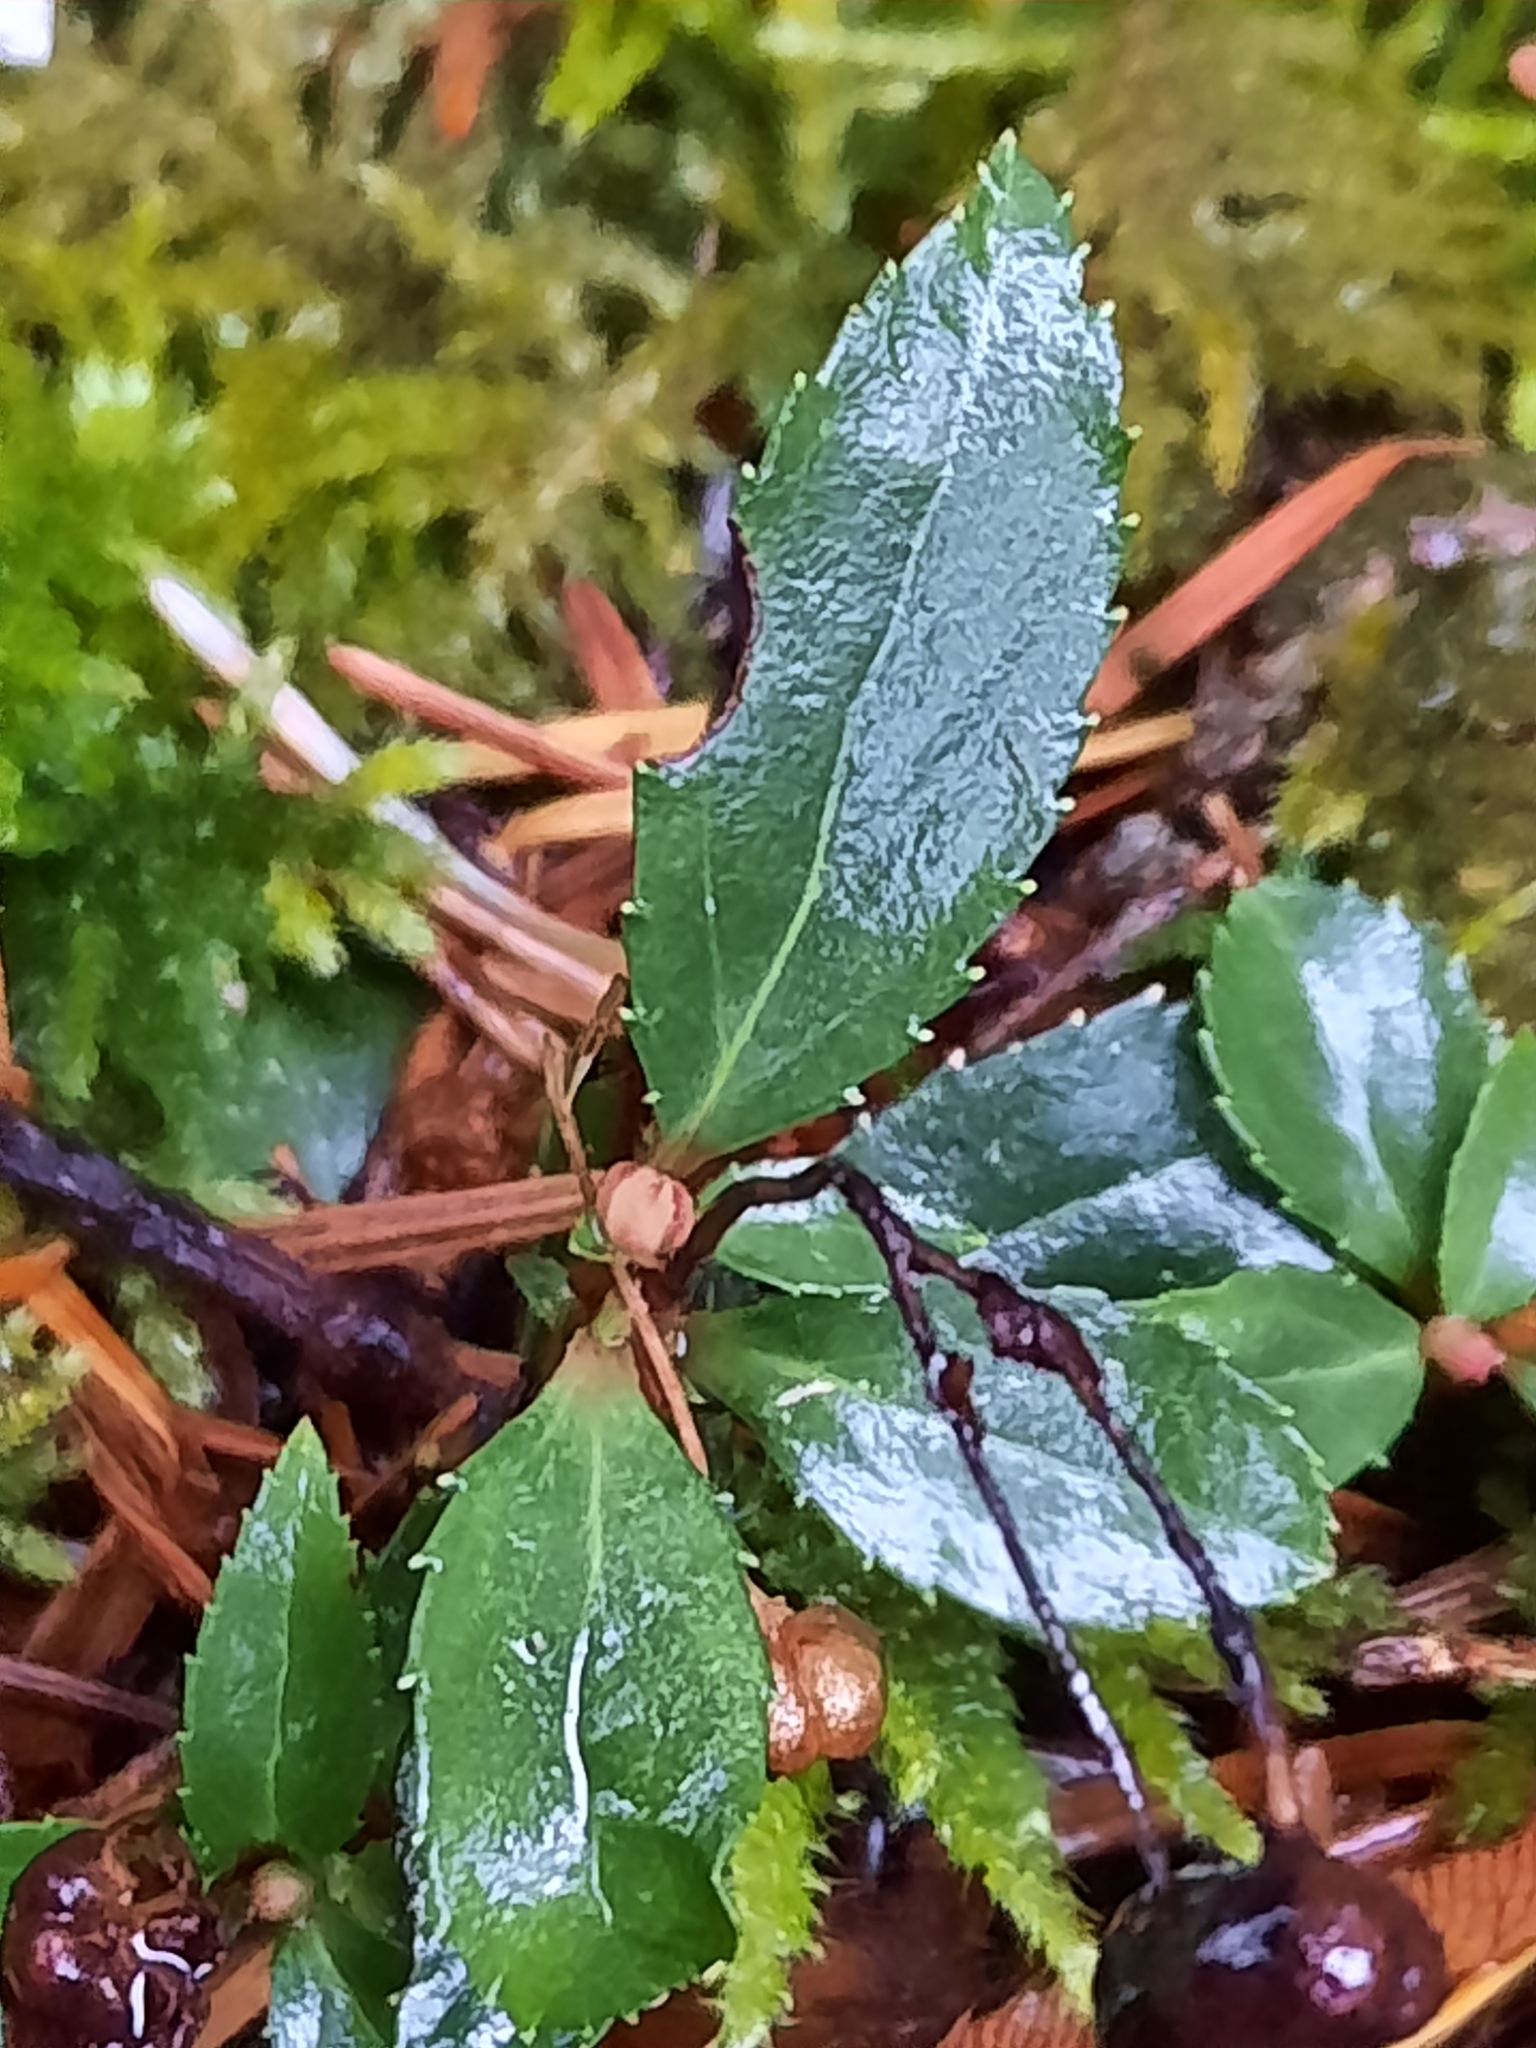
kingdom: Plantae
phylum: Tracheophyta
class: Magnoliopsida
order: Ericales
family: Ericaceae
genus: Chimaphila
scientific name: Chimaphila menziesii
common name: Menzies' pipsissewa
